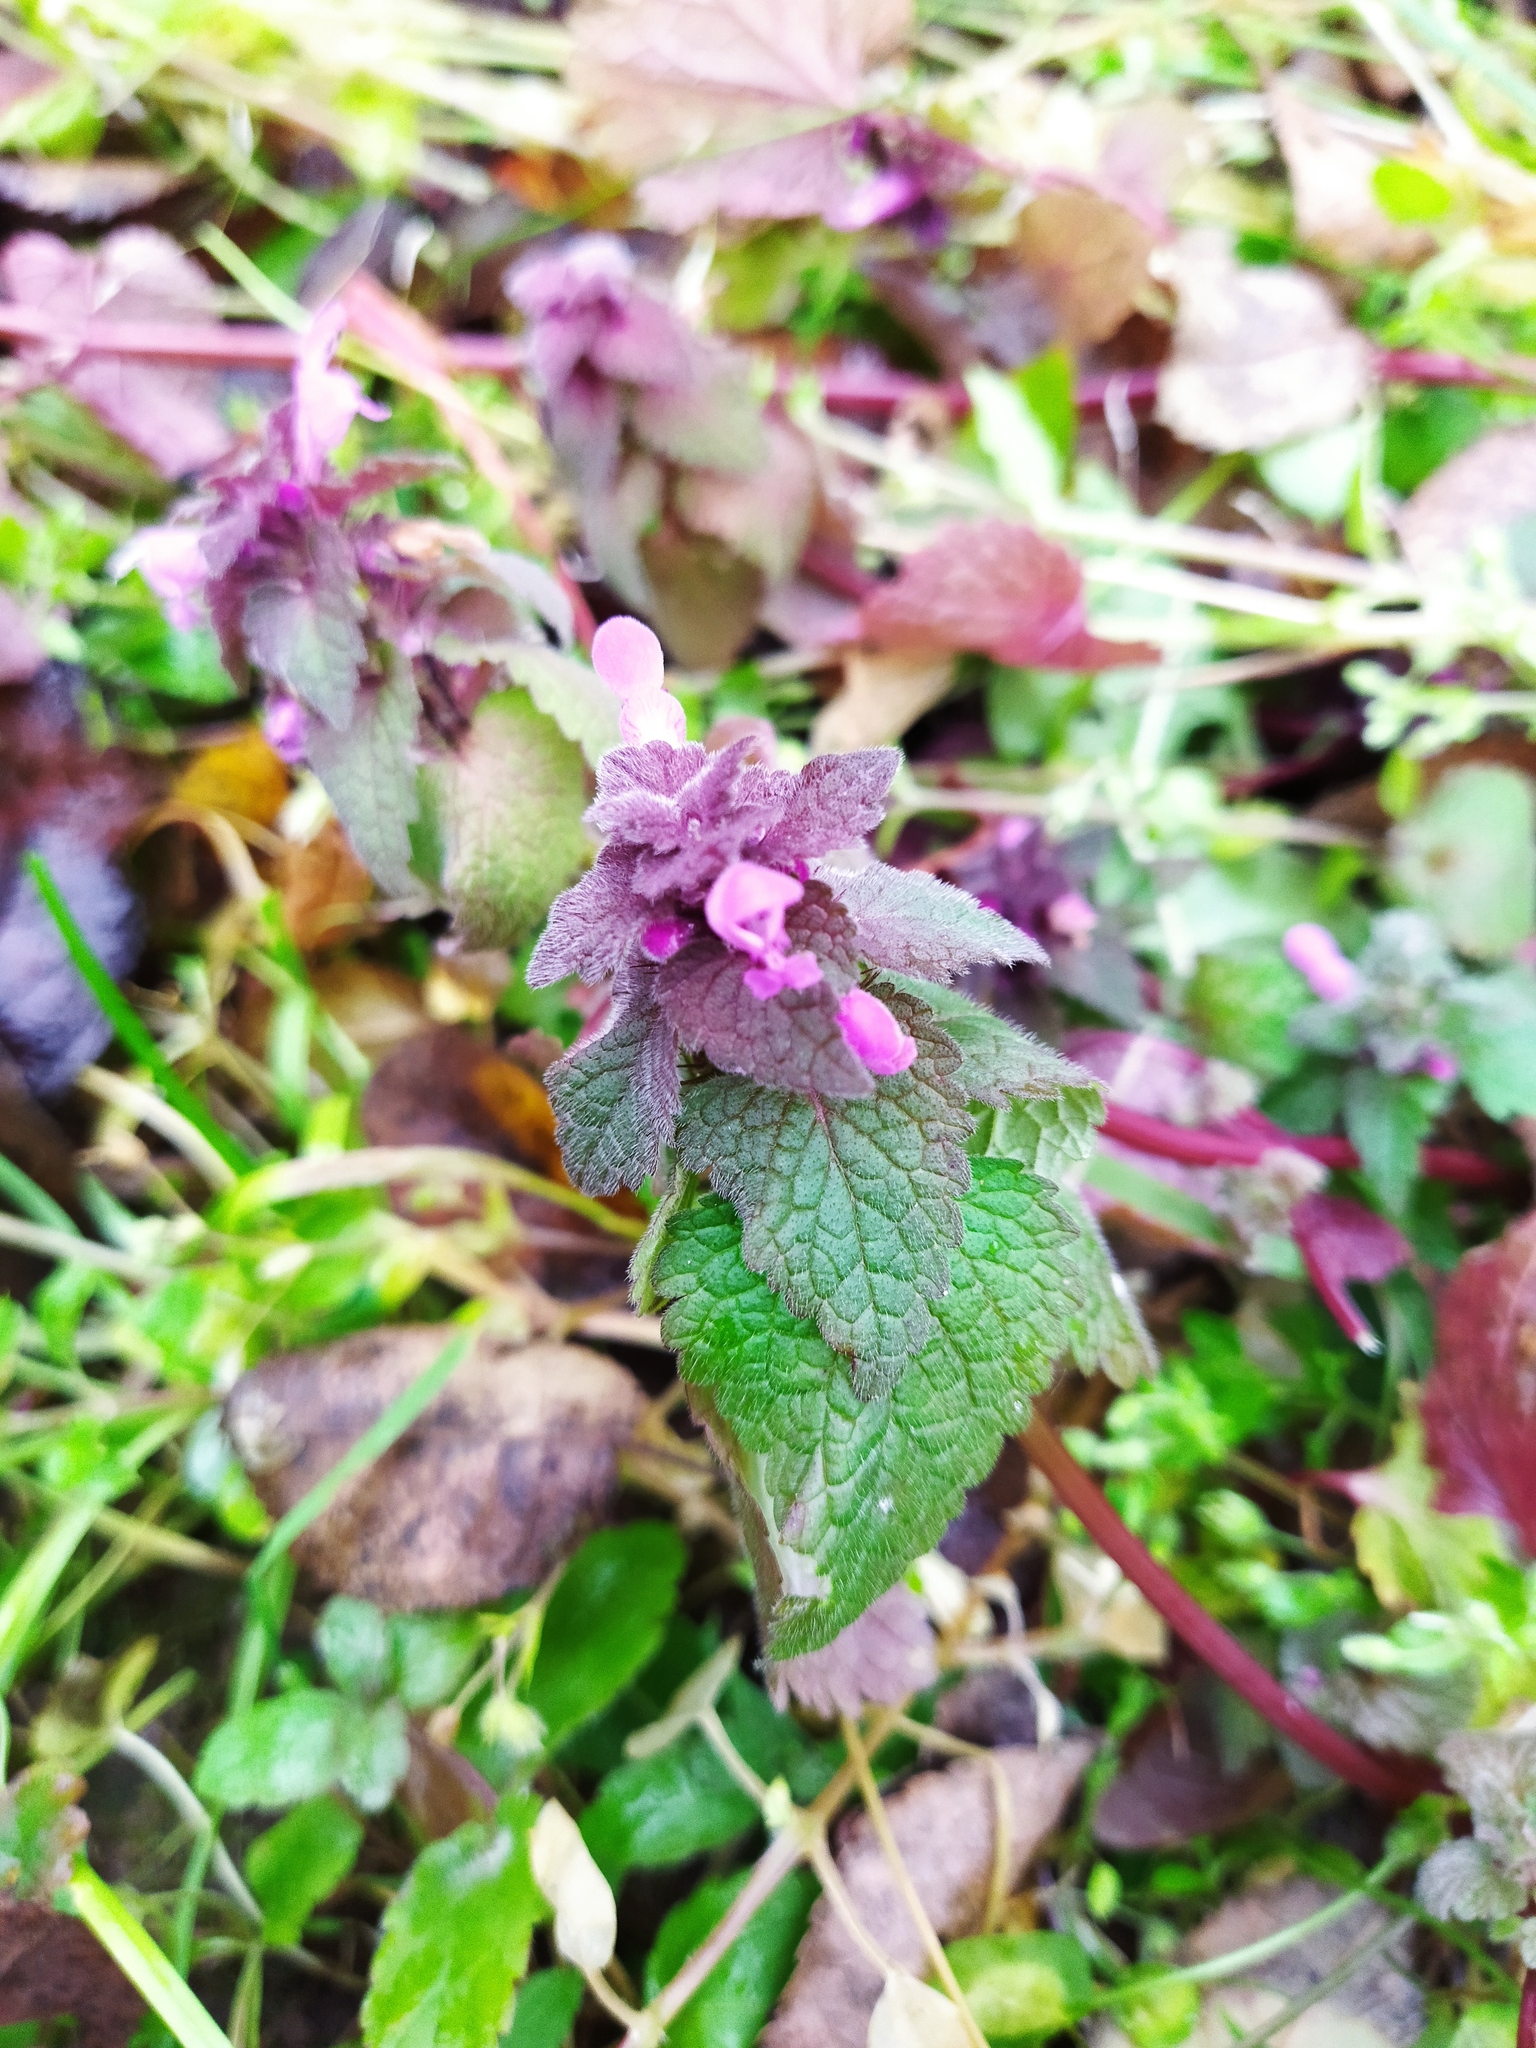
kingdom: Plantae
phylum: Tracheophyta
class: Magnoliopsida
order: Lamiales
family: Lamiaceae
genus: Lamium
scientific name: Lamium purpureum
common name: Red dead-nettle
